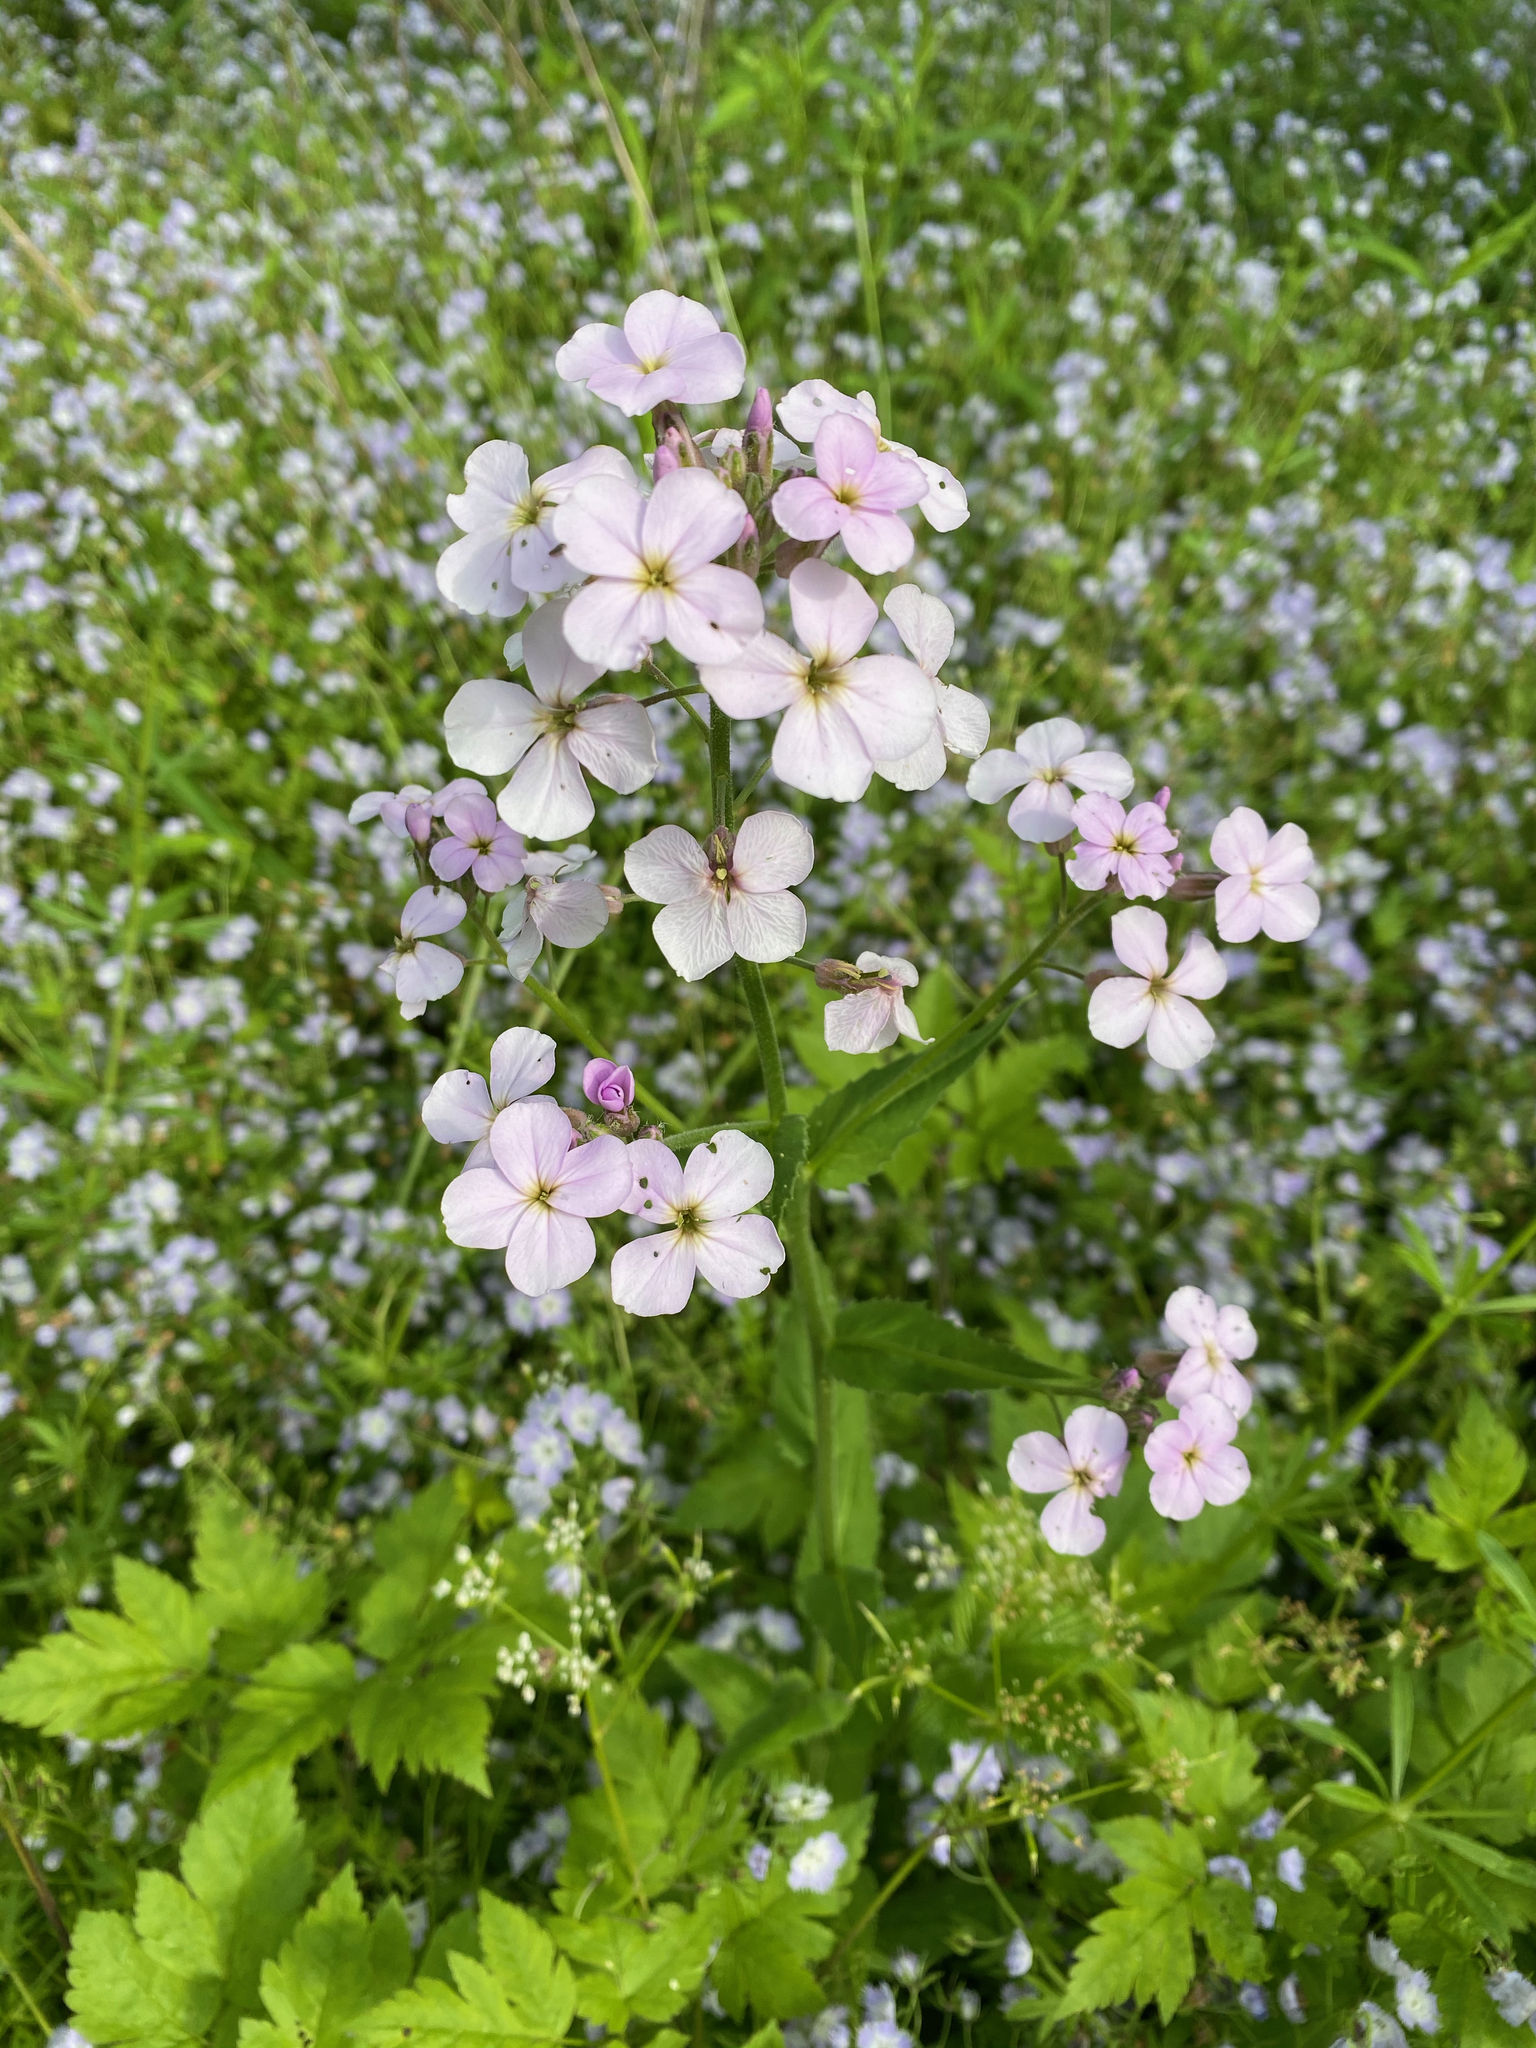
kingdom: Plantae
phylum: Tracheophyta
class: Magnoliopsida
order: Brassicales
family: Brassicaceae
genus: Hesperis
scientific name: Hesperis matronalis
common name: Dame's-violet
